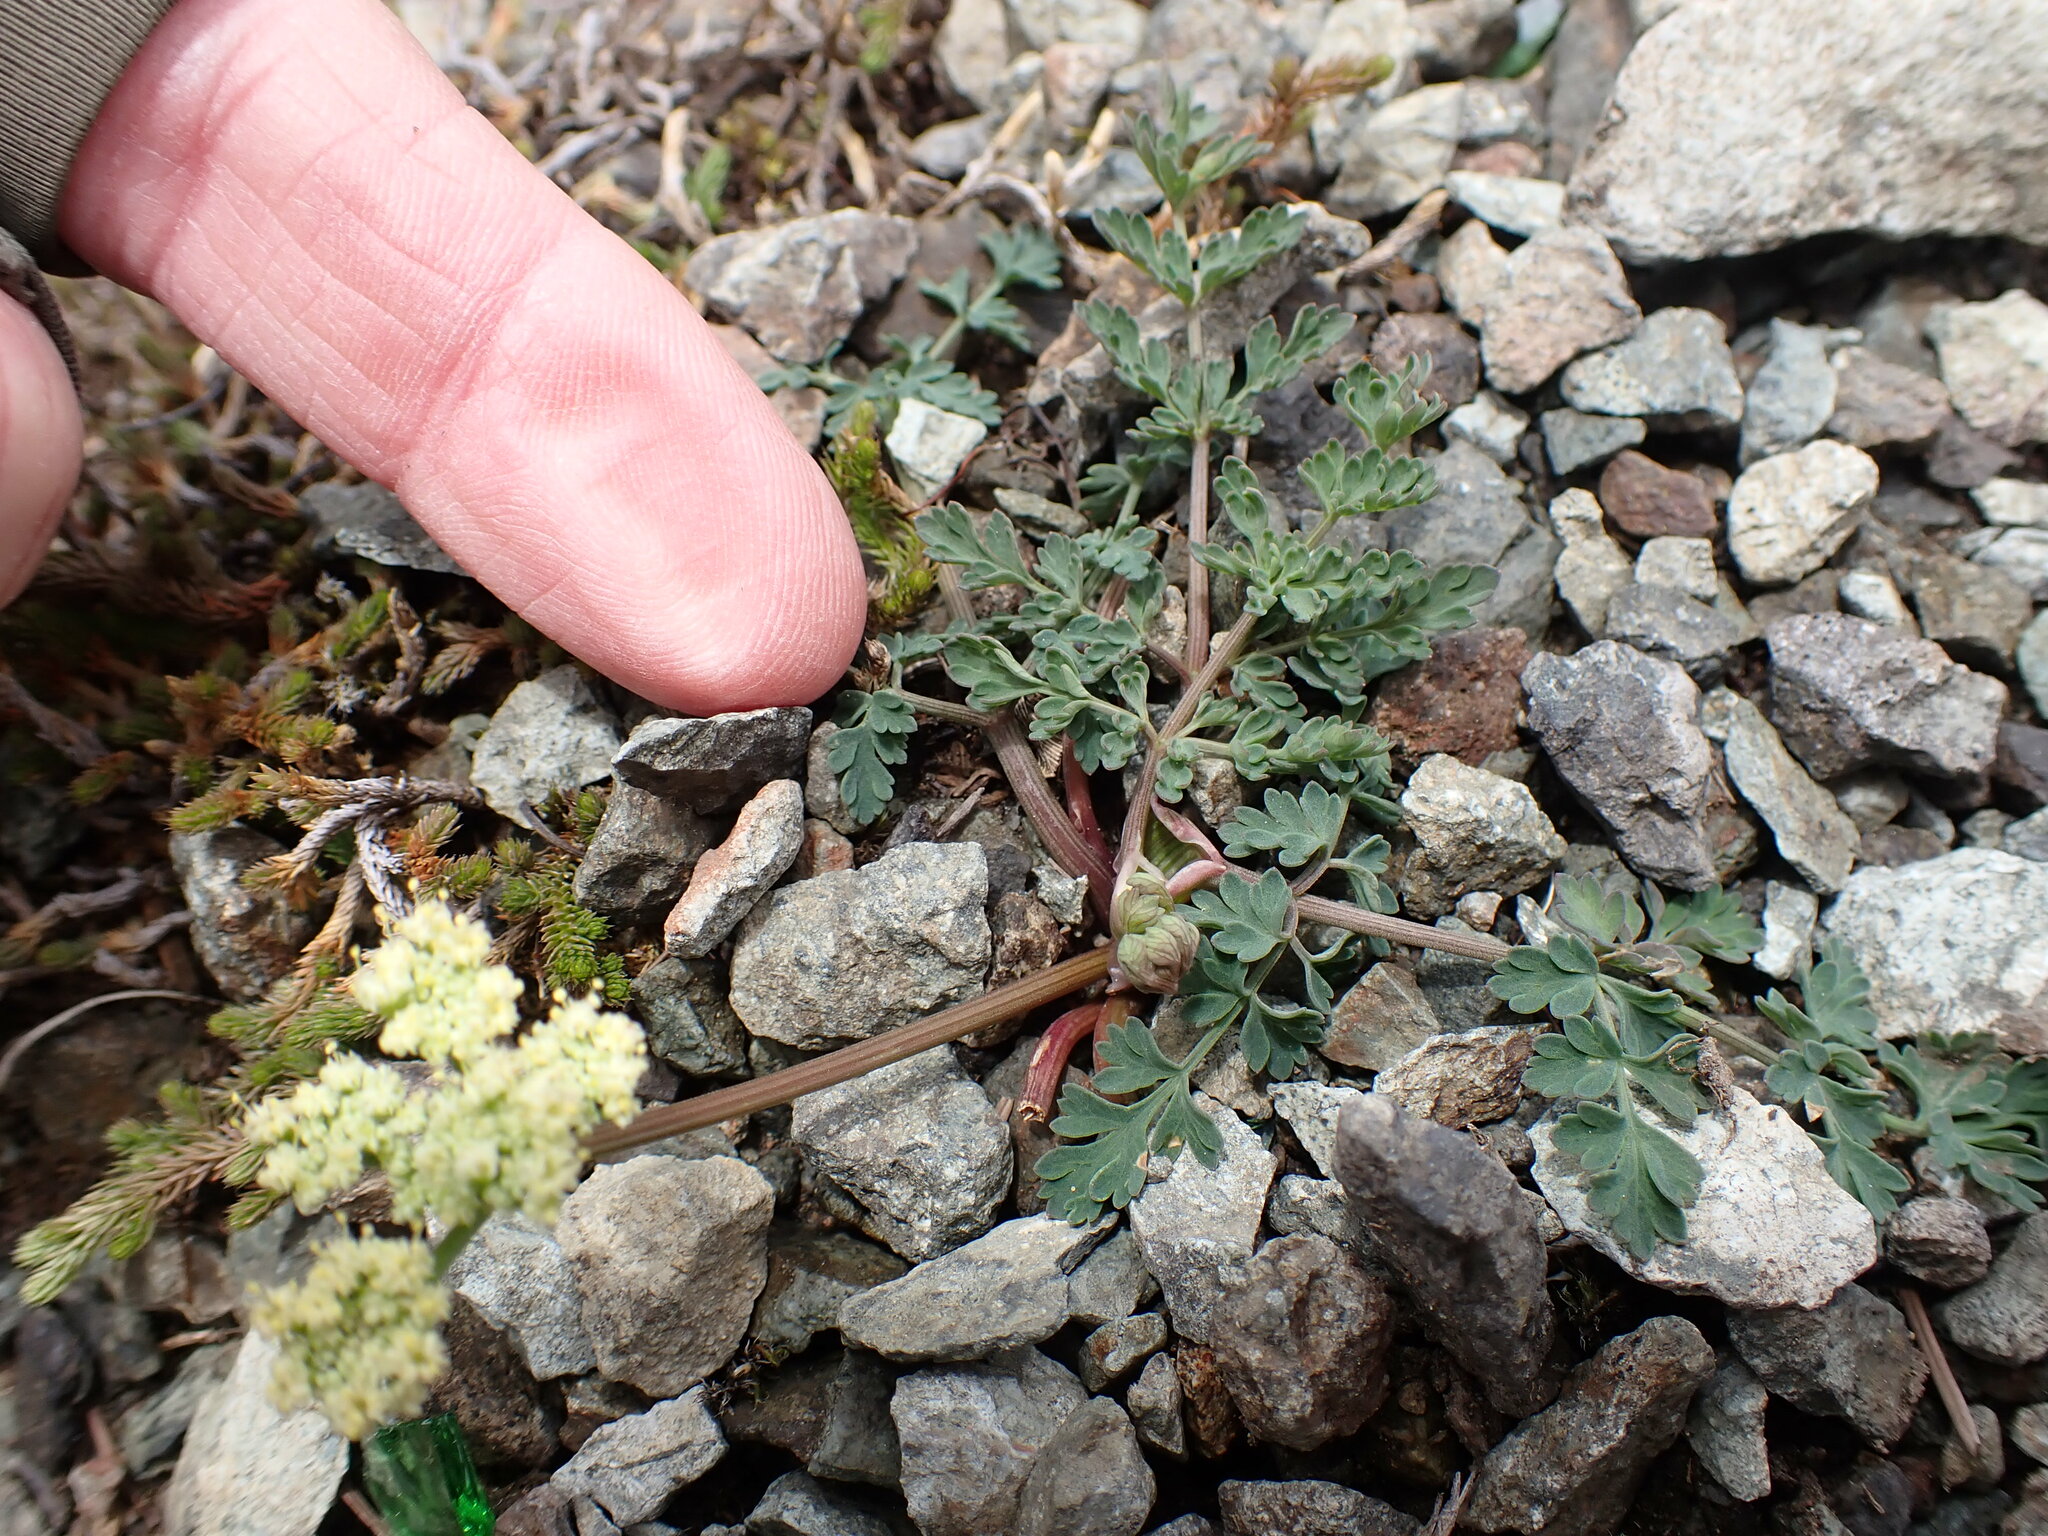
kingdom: Plantae
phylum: Tracheophyta
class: Magnoliopsida
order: Apiales
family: Apiaceae
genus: Lomatium
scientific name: Lomatium martindalei
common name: Cascade desert-parsley
